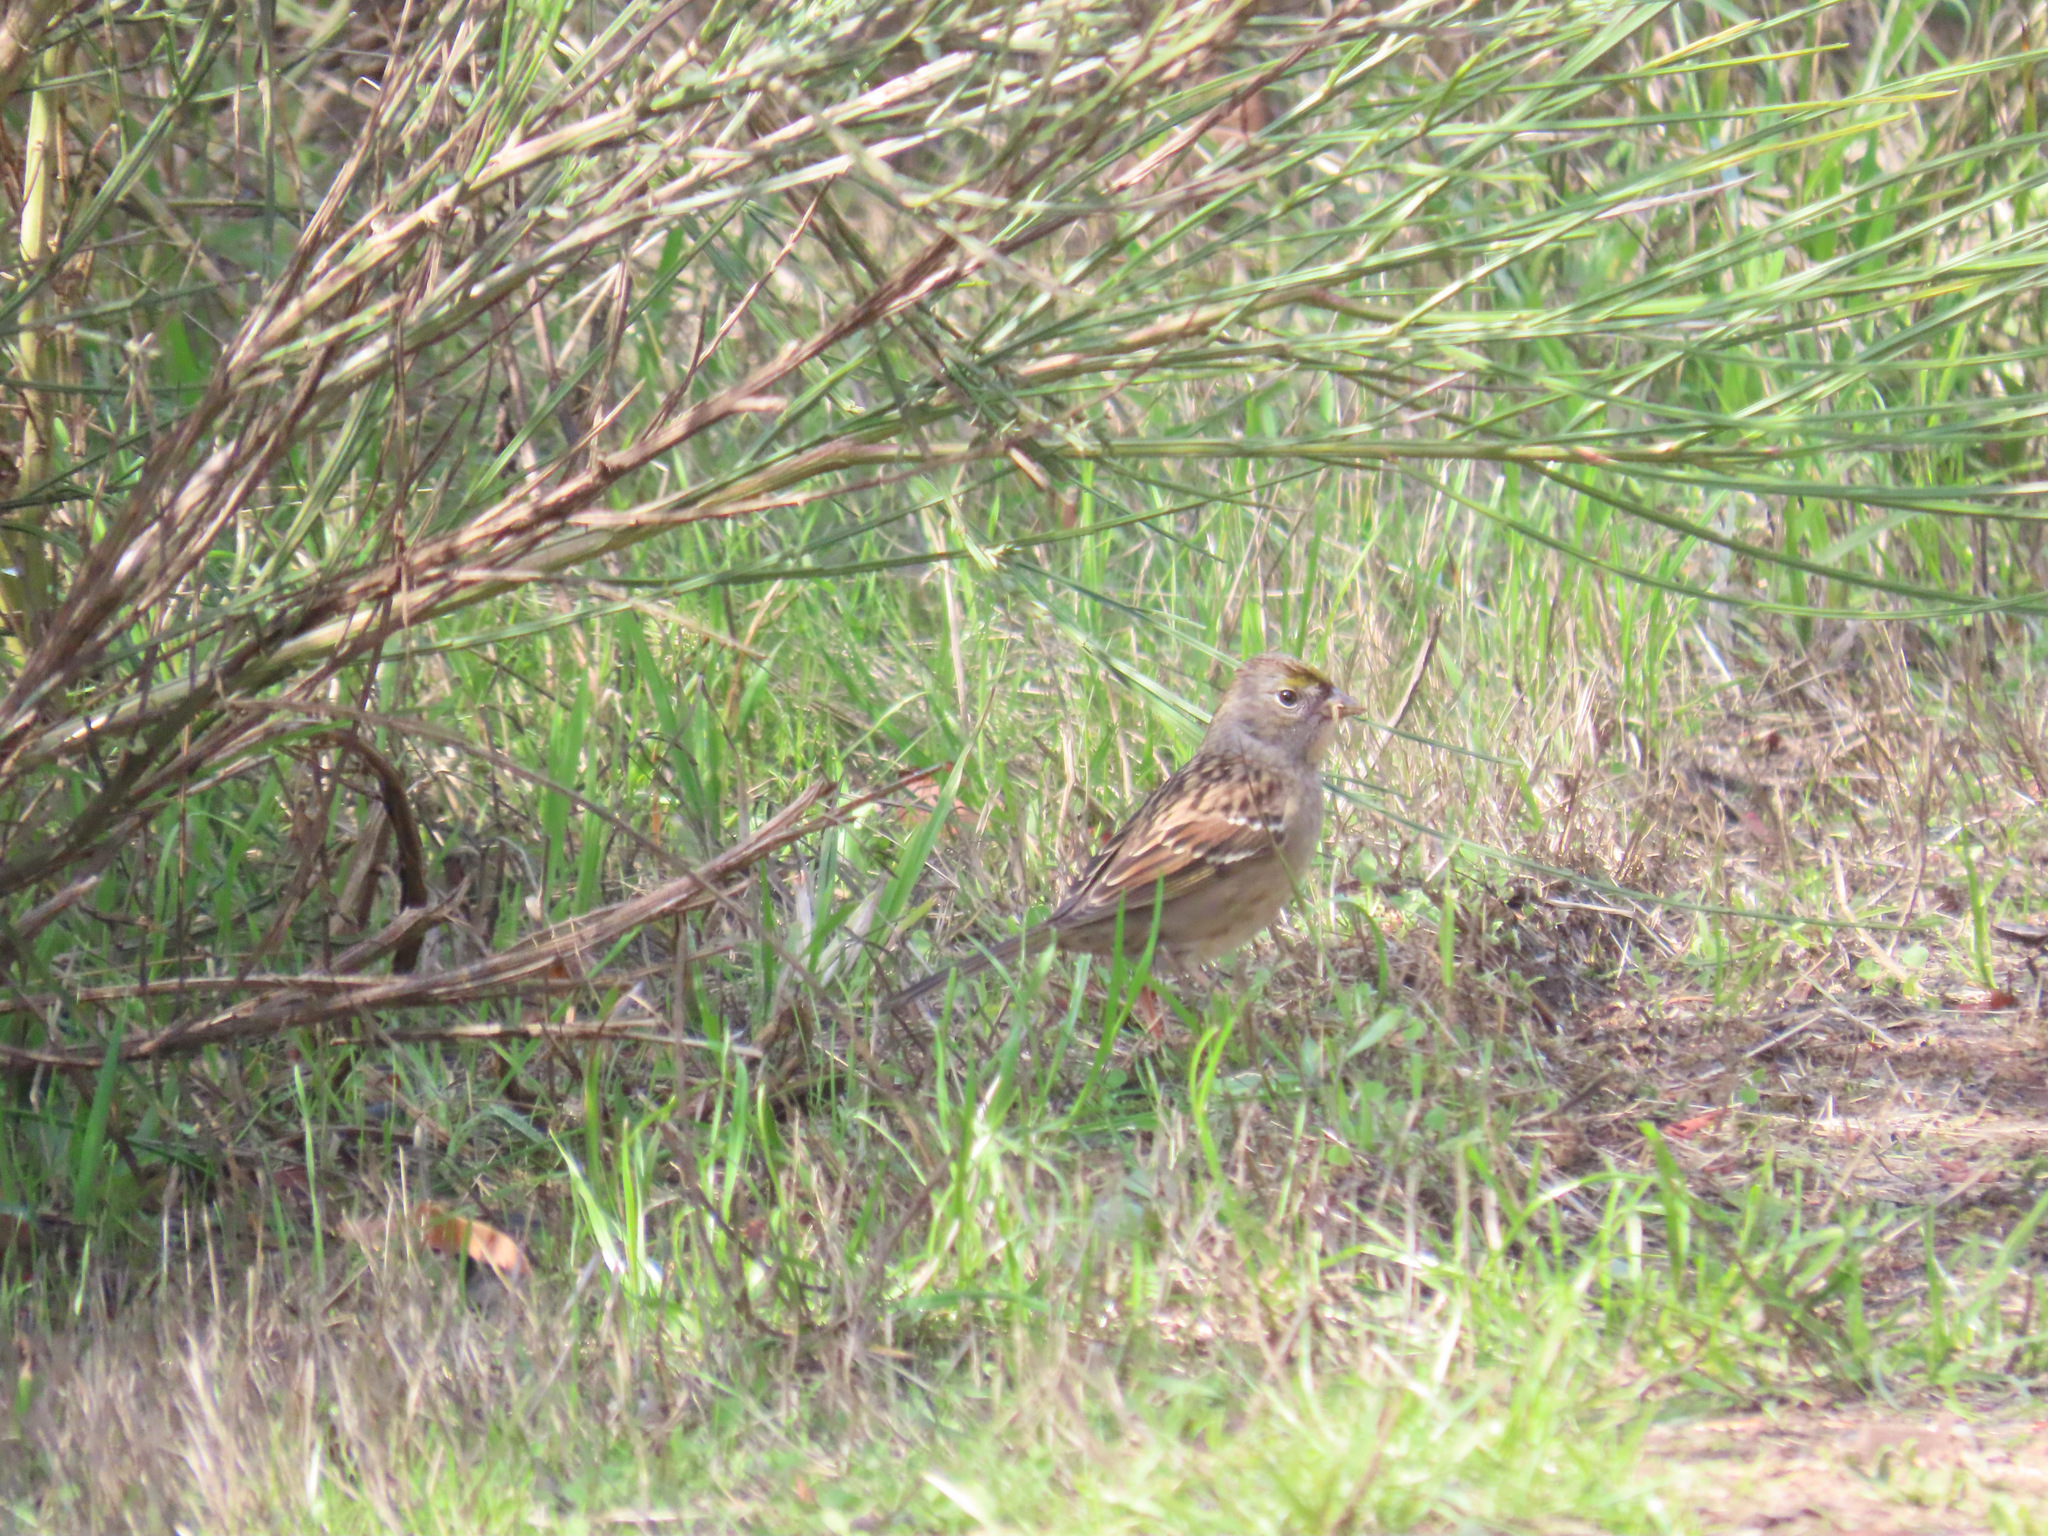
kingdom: Animalia
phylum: Chordata
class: Aves
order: Passeriformes
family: Passerellidae
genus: Zonotrichia
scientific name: Zonotrichia atricapilla
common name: Golden-crowned sparrow
